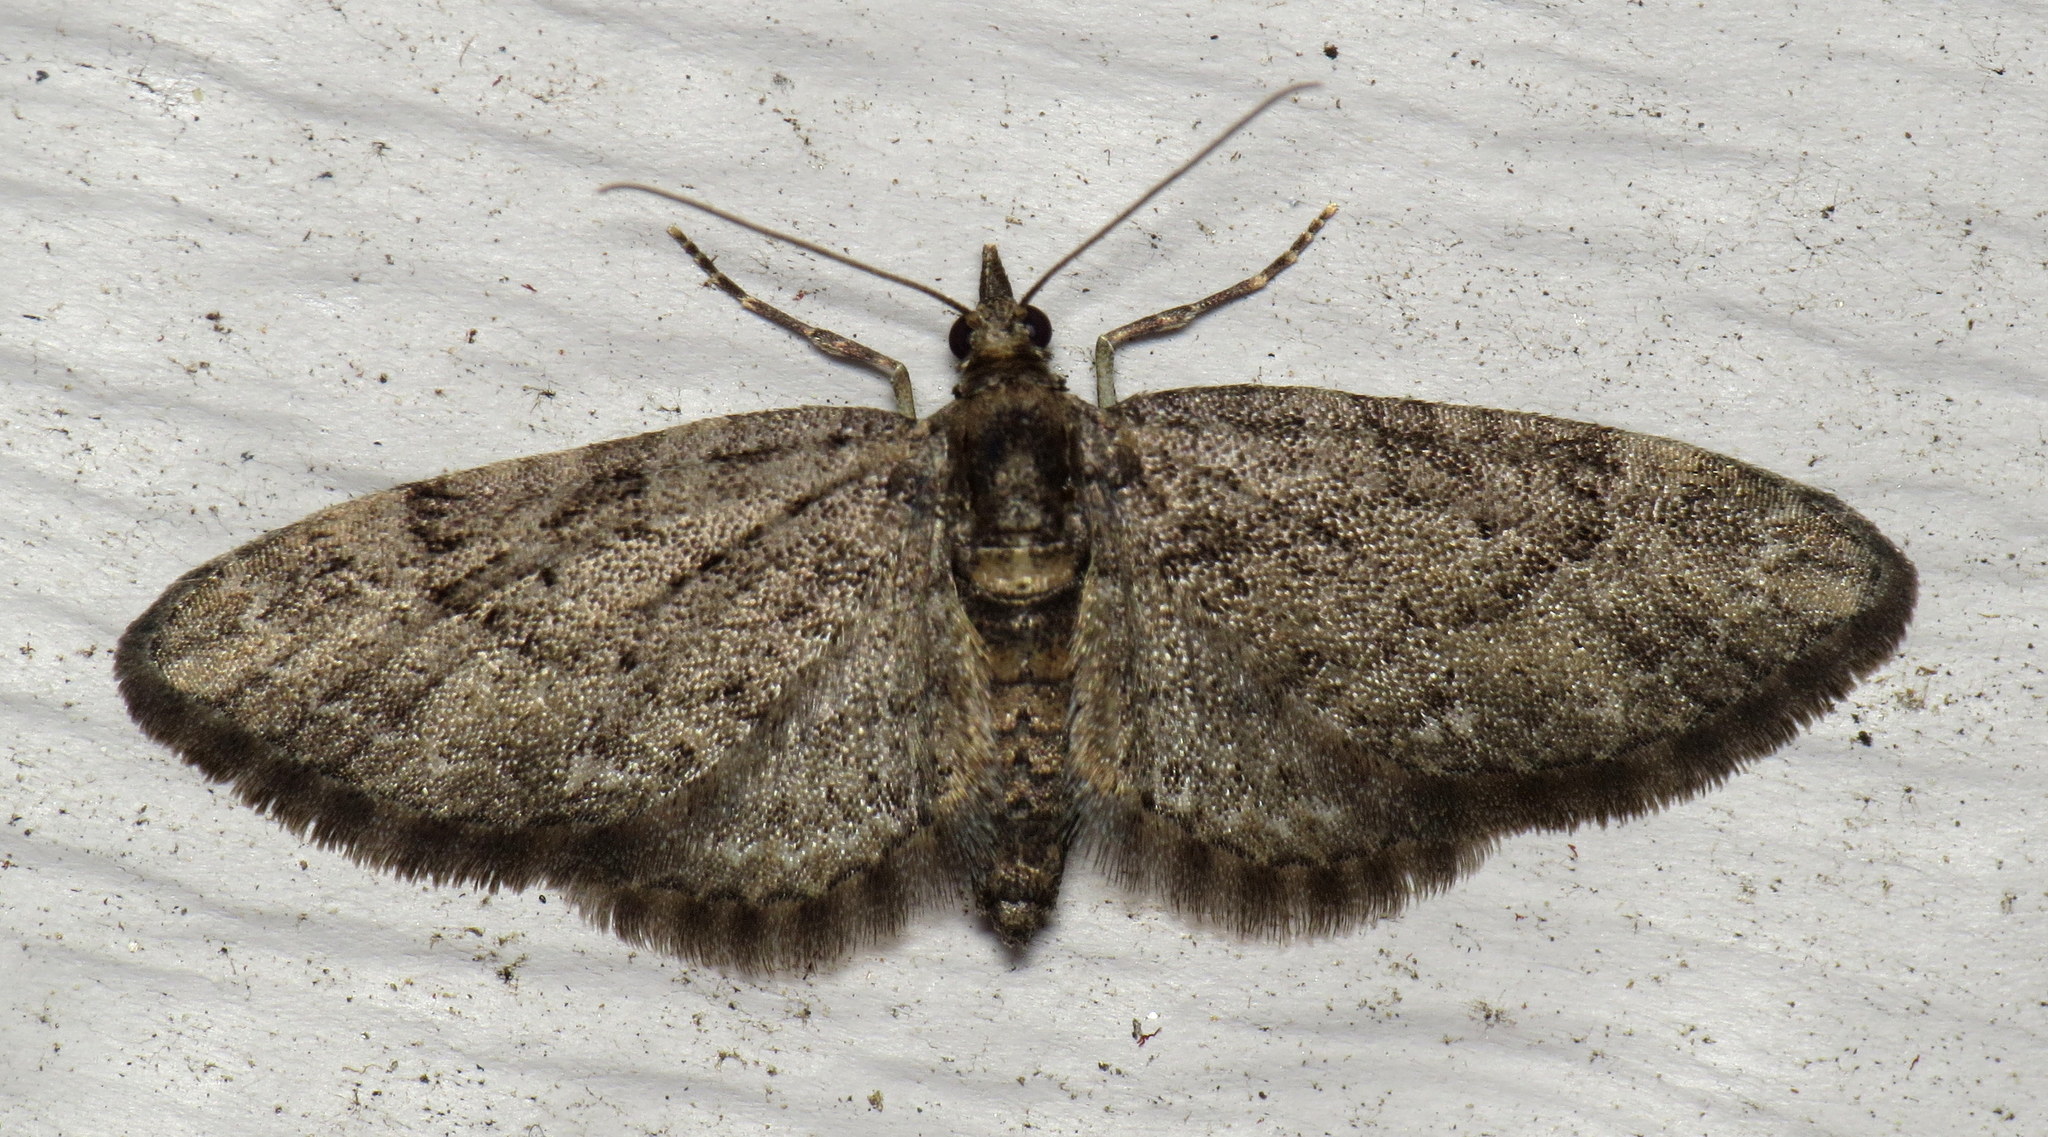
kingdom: Animalia
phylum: Arthropoda
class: Insecta
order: Lepidoptera
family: Geometridae
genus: Eupithecia
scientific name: Eupithecia
